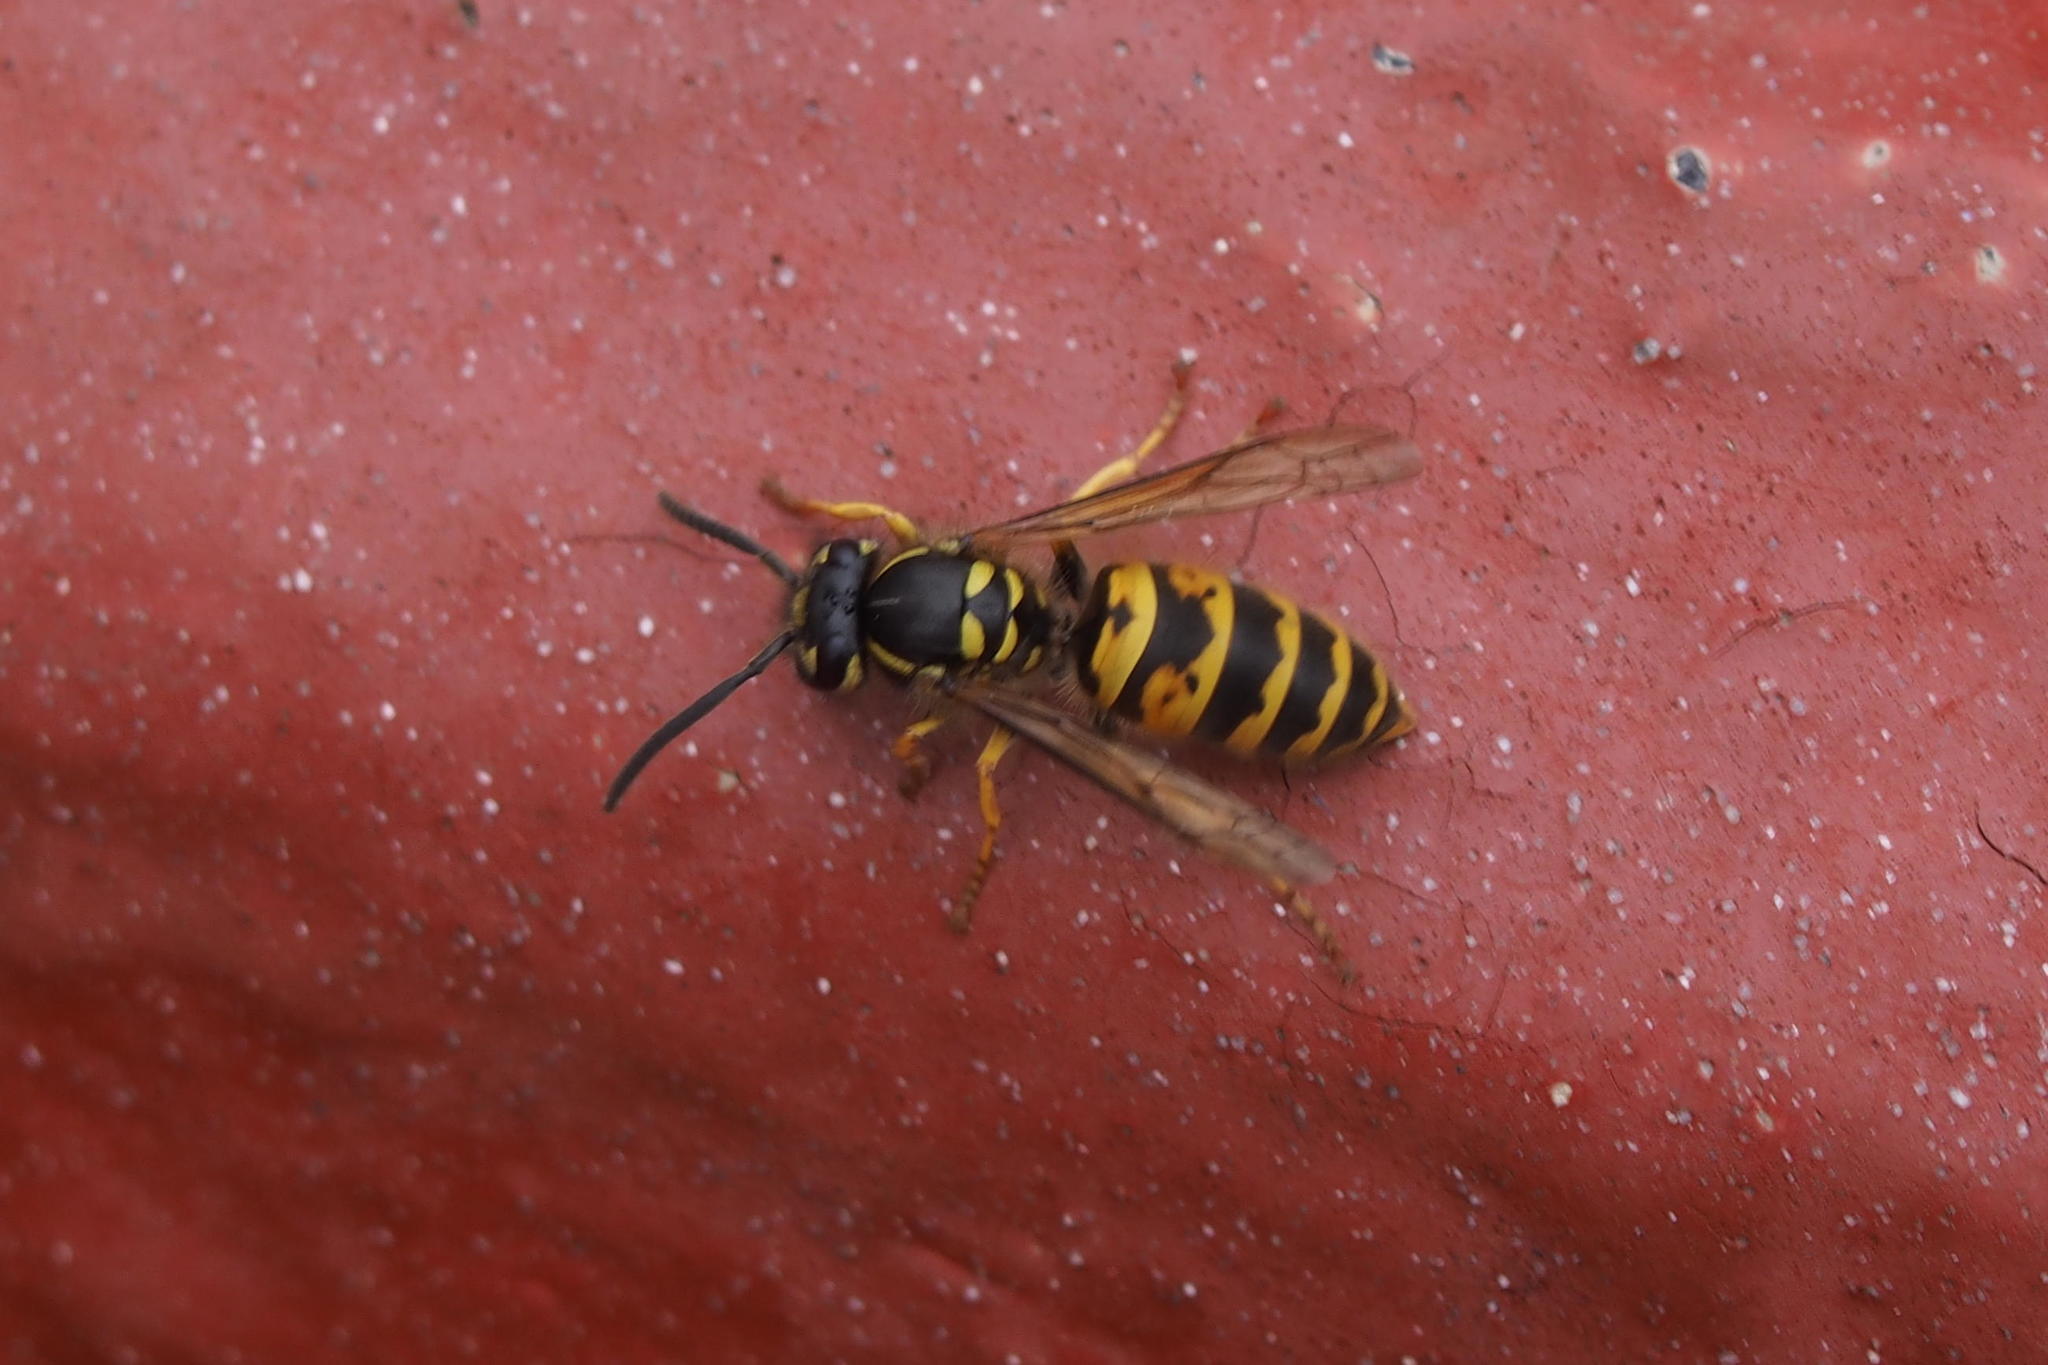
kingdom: Animalia
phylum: Arthropoda
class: Insecta
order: Hymenoptera
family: Vespidae
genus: Vespula
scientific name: Vespula vulgaris
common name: Common wasp
